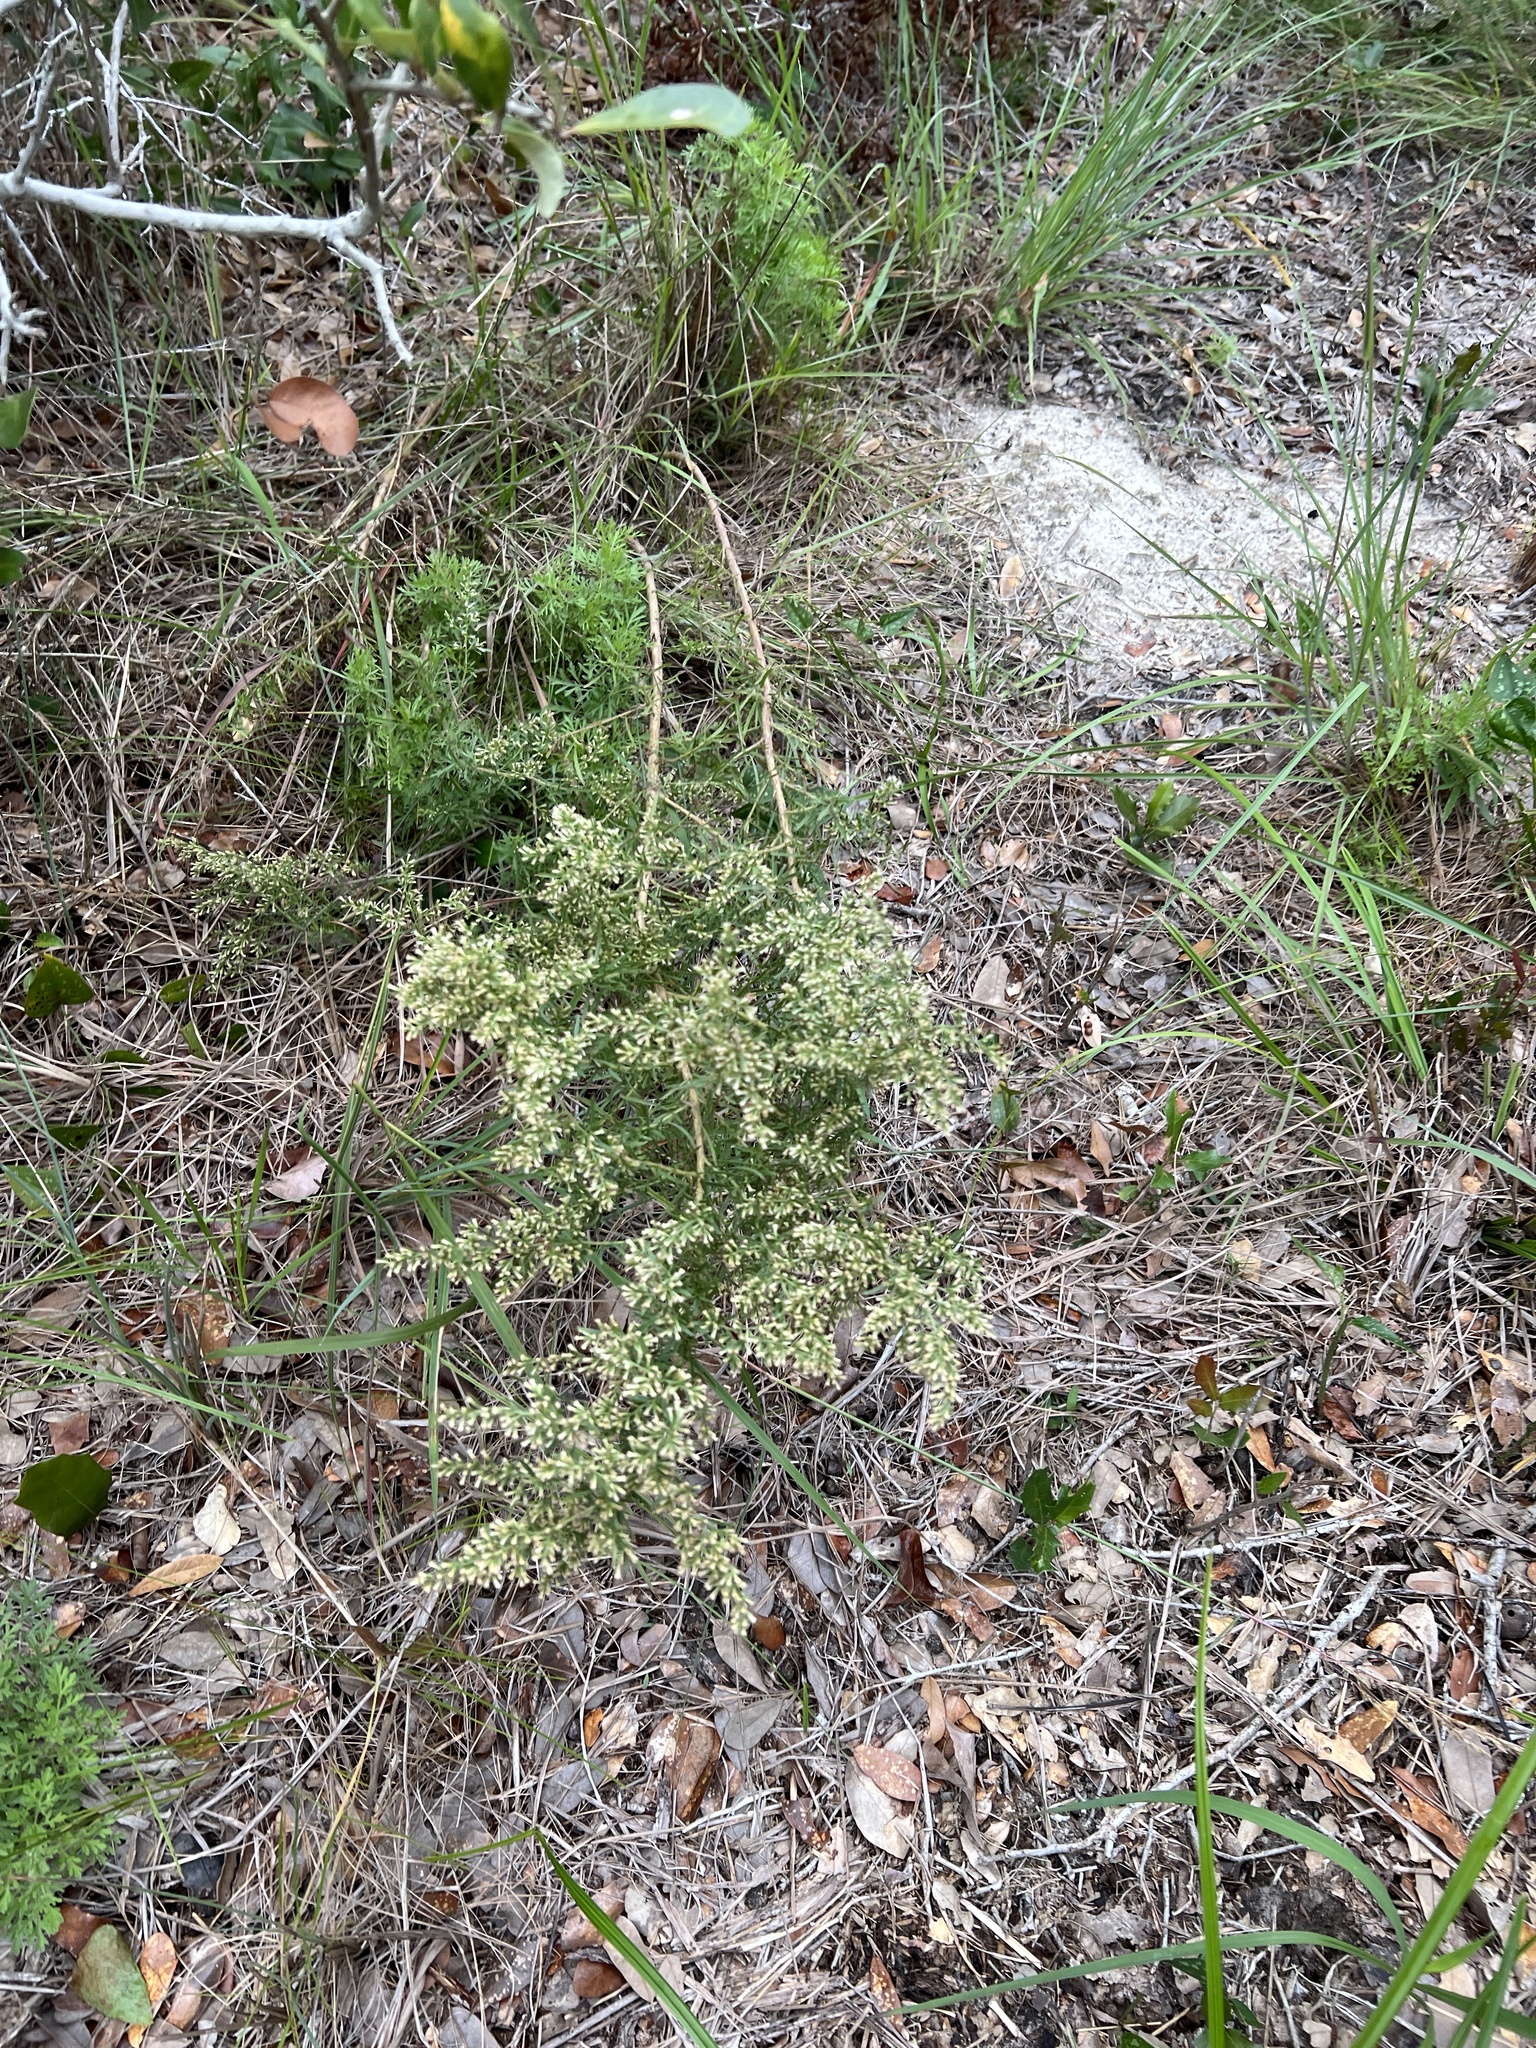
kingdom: Plantae
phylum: Tracheophyta
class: Magnoliopsida
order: Asterales
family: Asteraceae
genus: Eupatorium
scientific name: Eupatorium compositifolium
